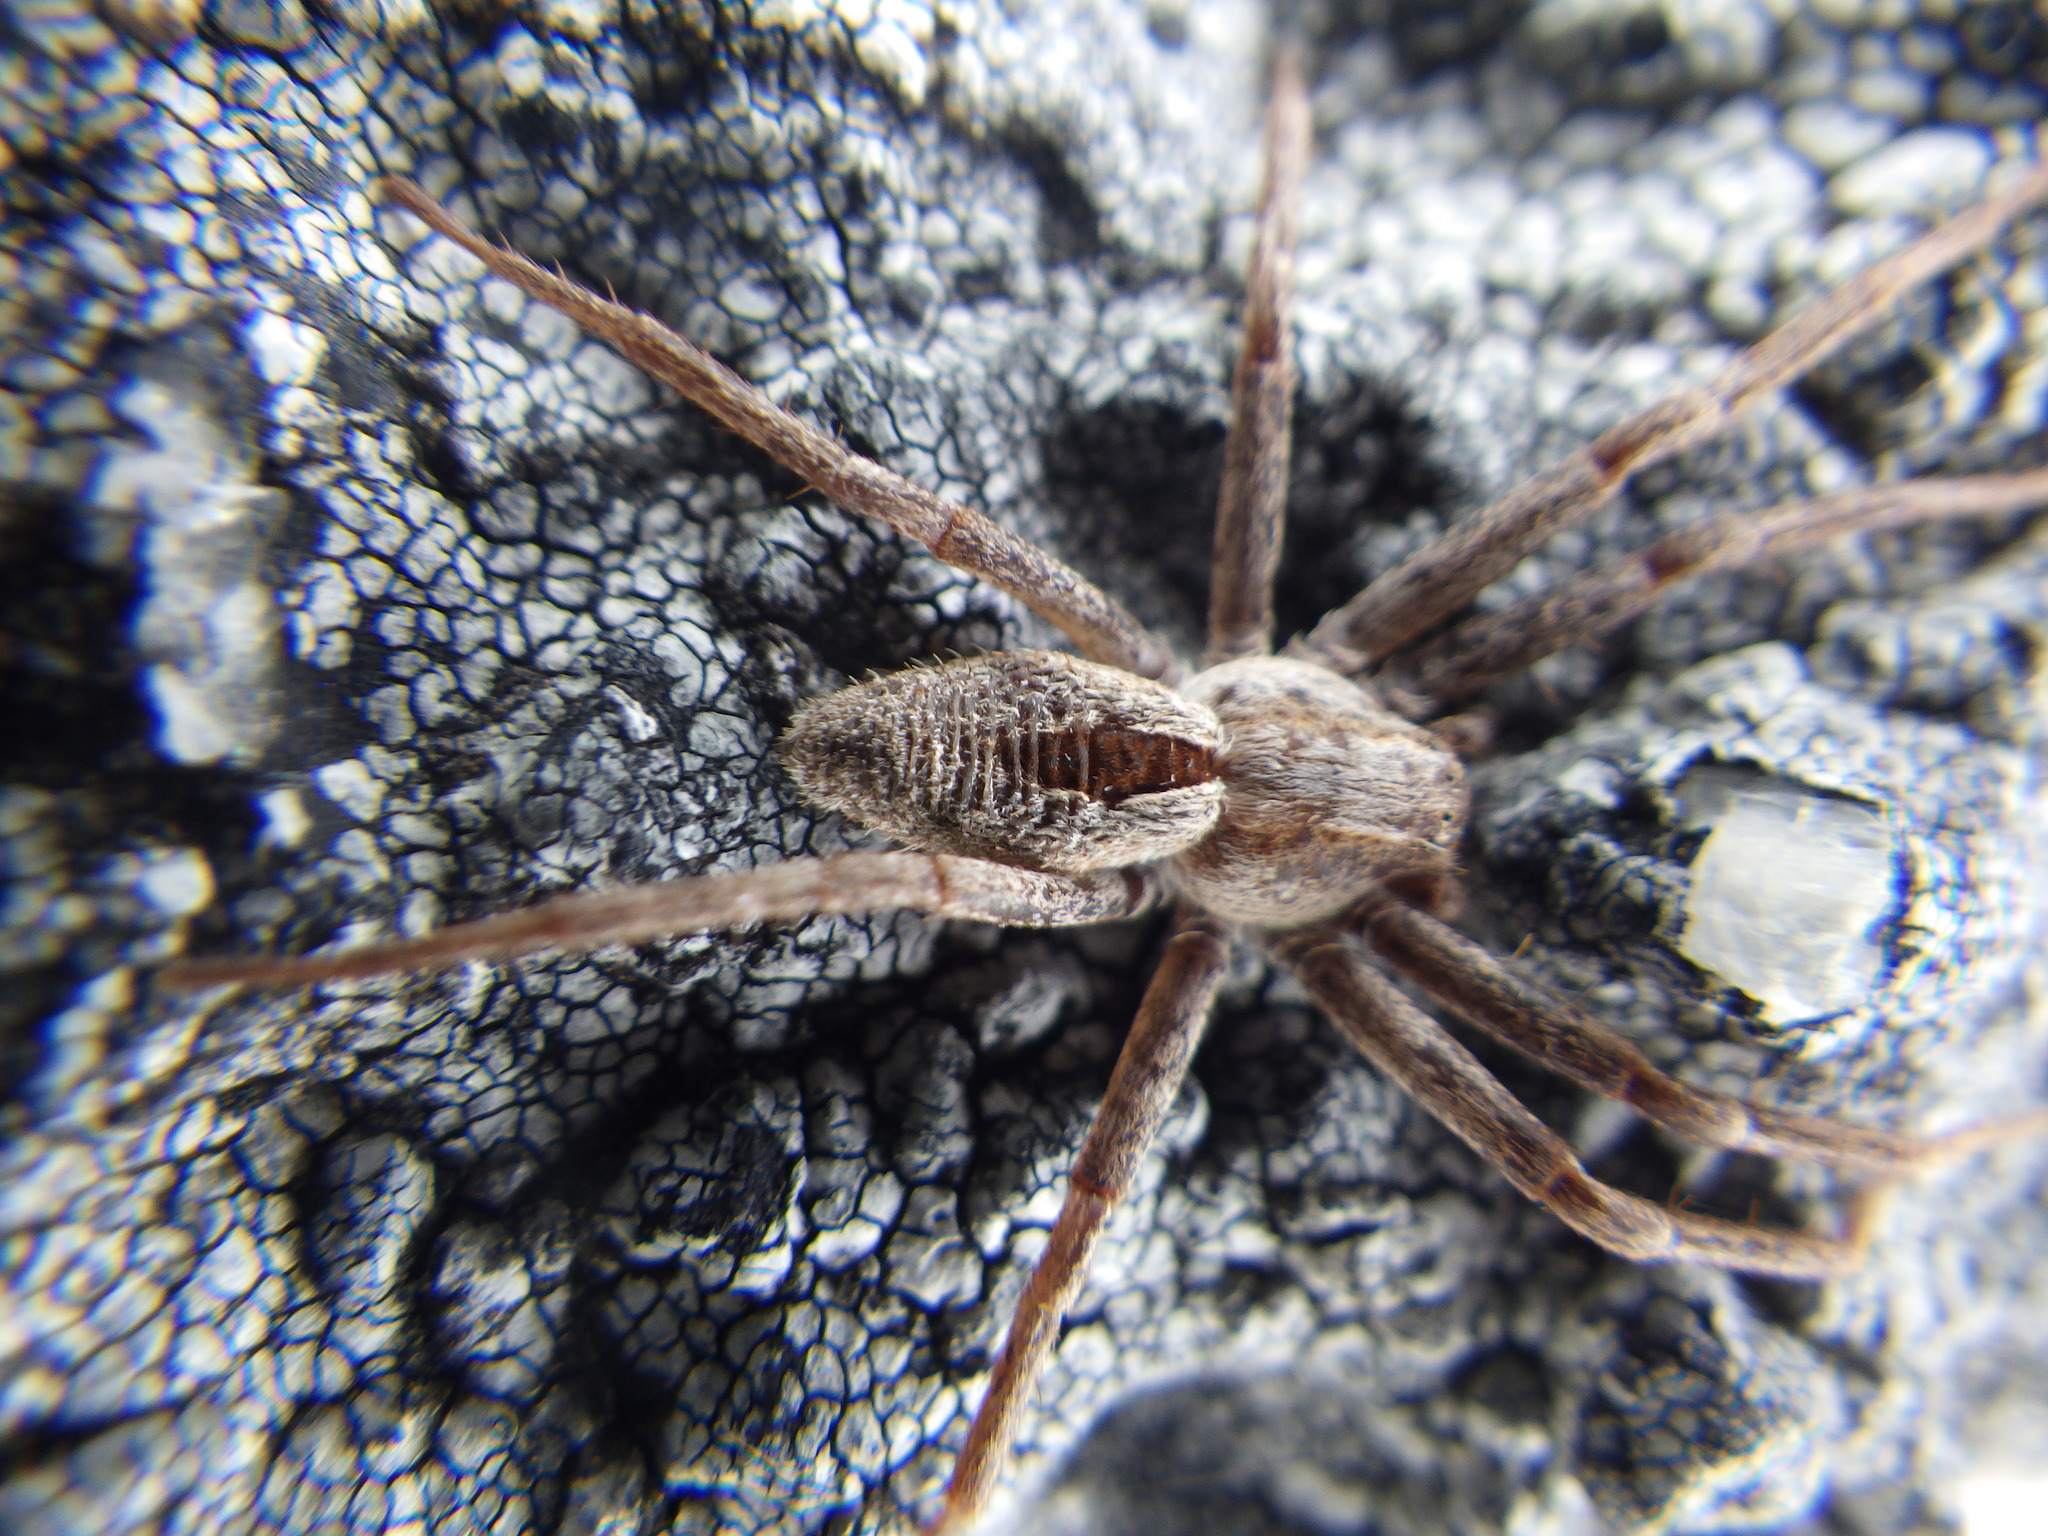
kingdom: Animalia
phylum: Arthropoda
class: Arachnida
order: Araneae
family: Philodromidae
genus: Thanatus
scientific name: Thanatus formicinus
